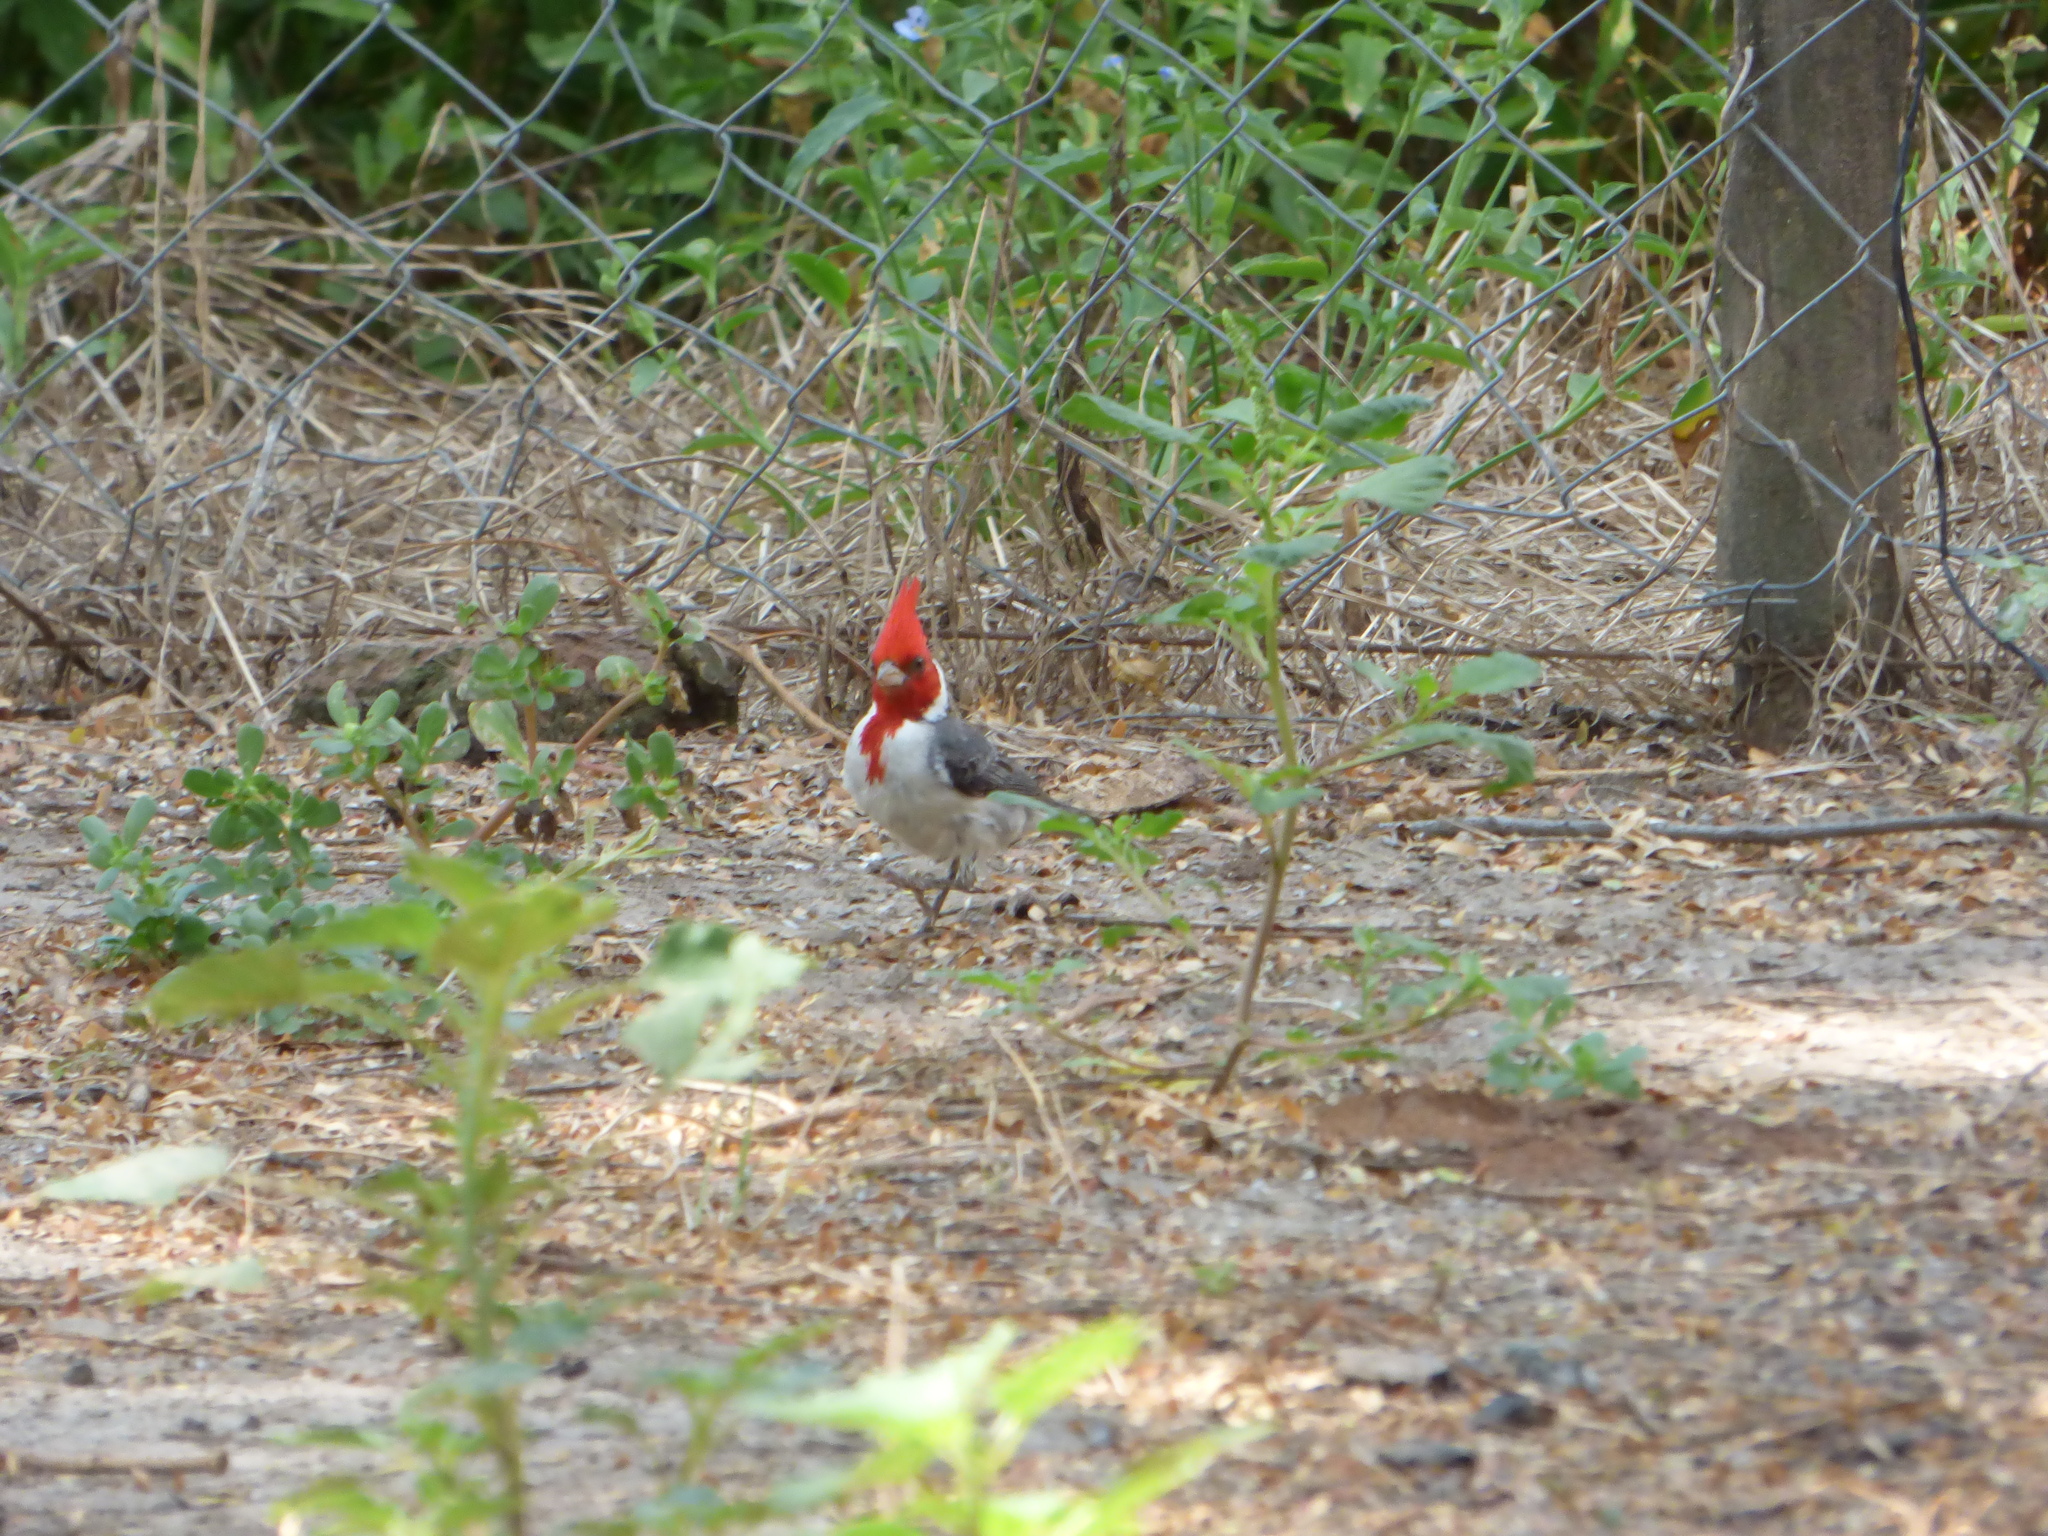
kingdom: Animalia
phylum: Chordata
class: Aves
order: Passeriformes
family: Thraupidae
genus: Paroaria
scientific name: Paroaria coronata
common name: Red-crested cardinal
